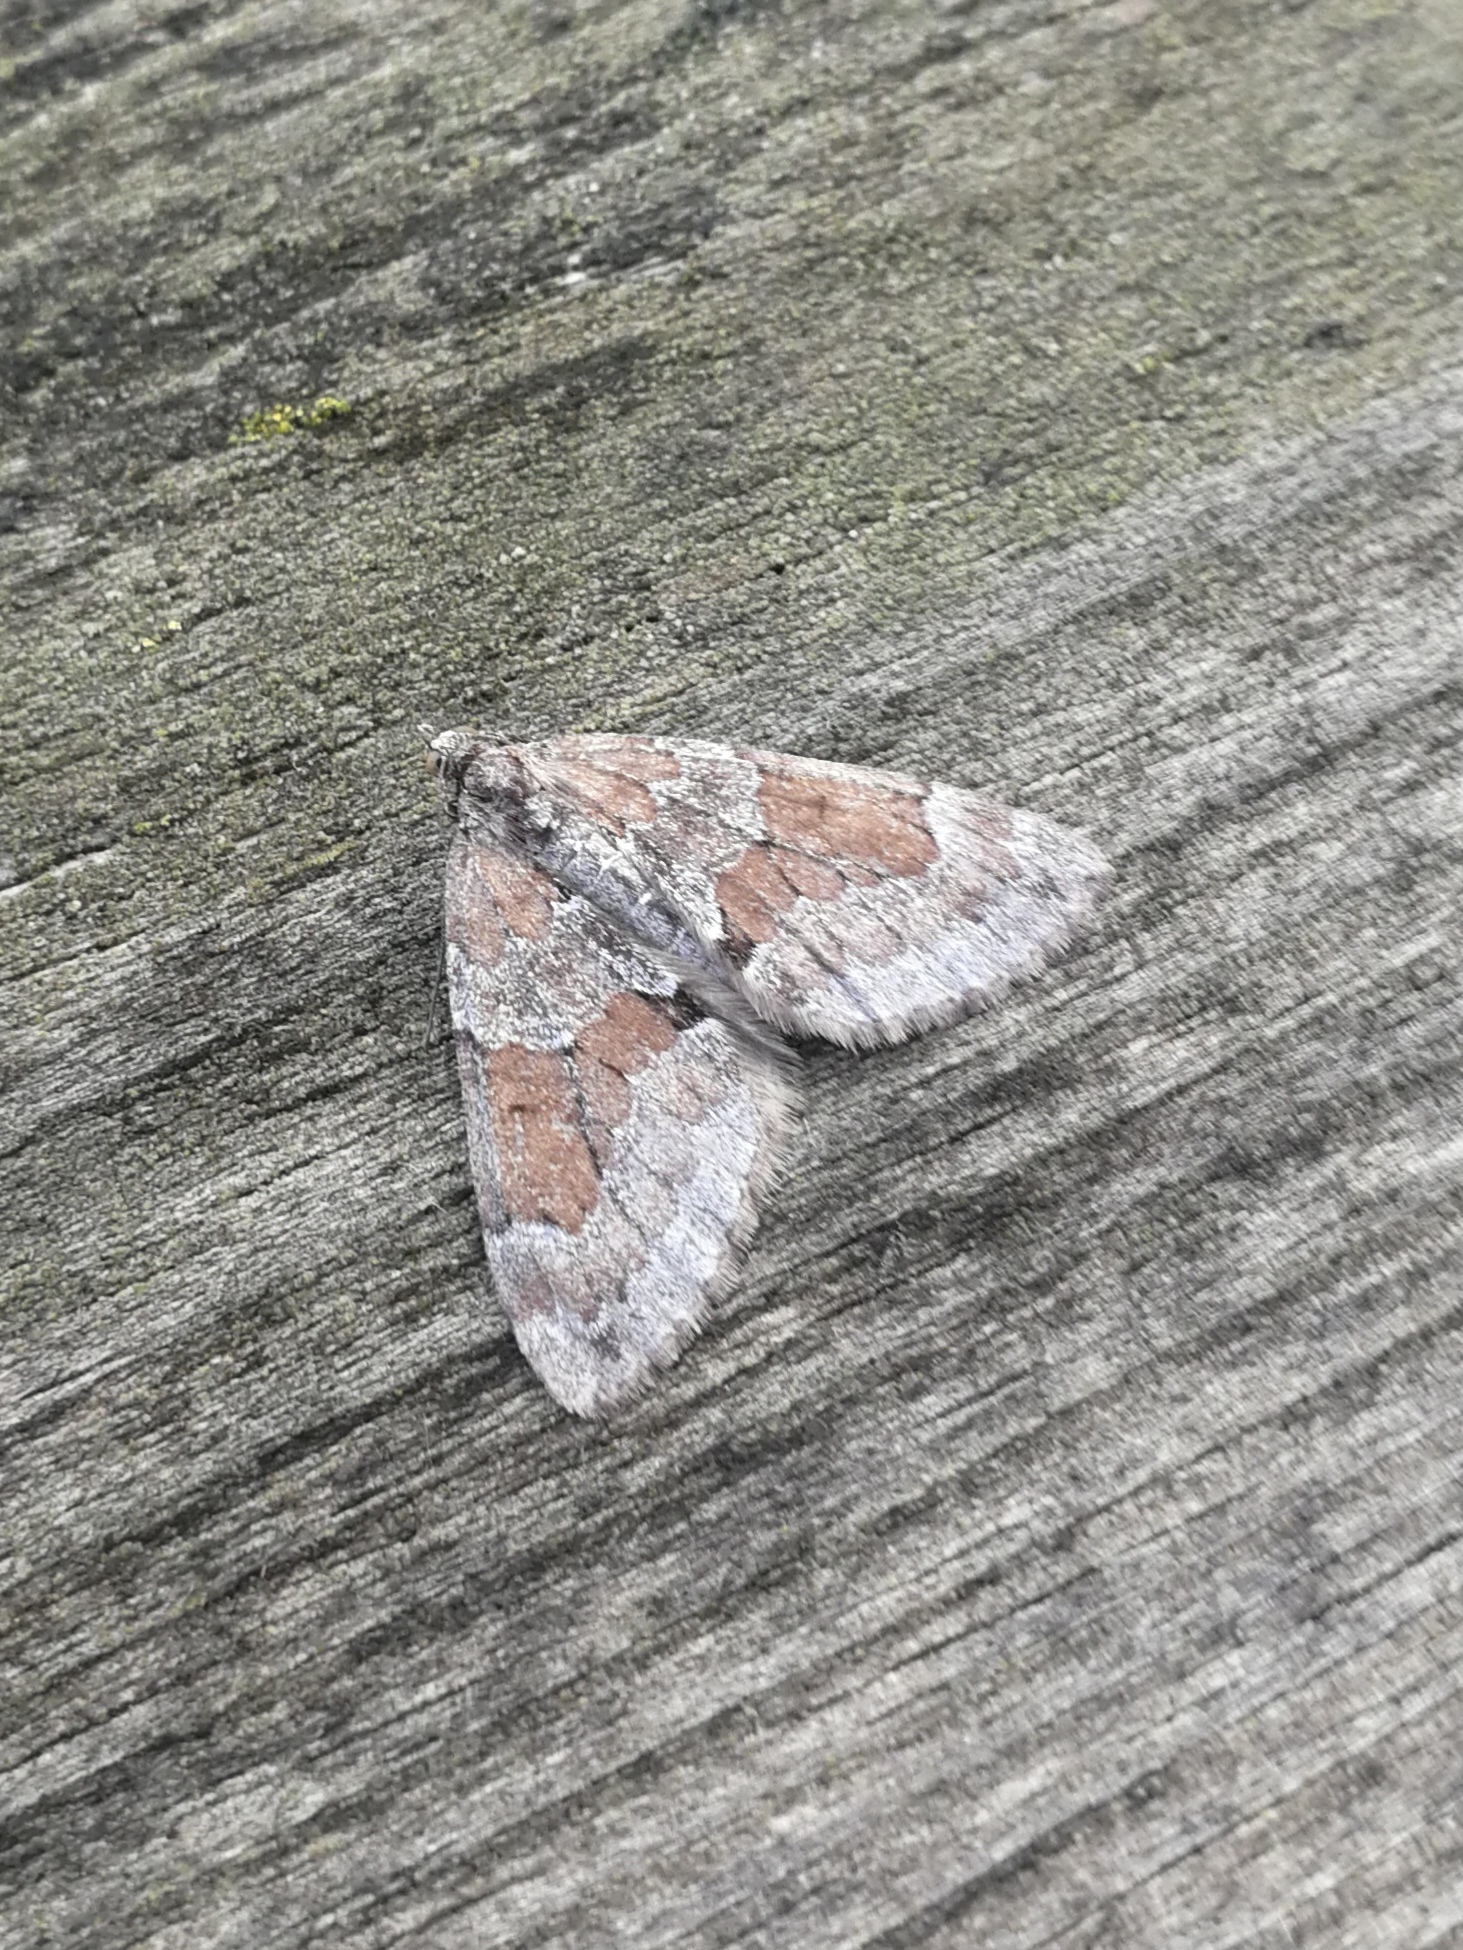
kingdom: Animalia
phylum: Arthropoda
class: Insecta
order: Lepidoptera
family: Geometridae
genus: Thera
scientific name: Thera obeliscata
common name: Grey pine carpet
